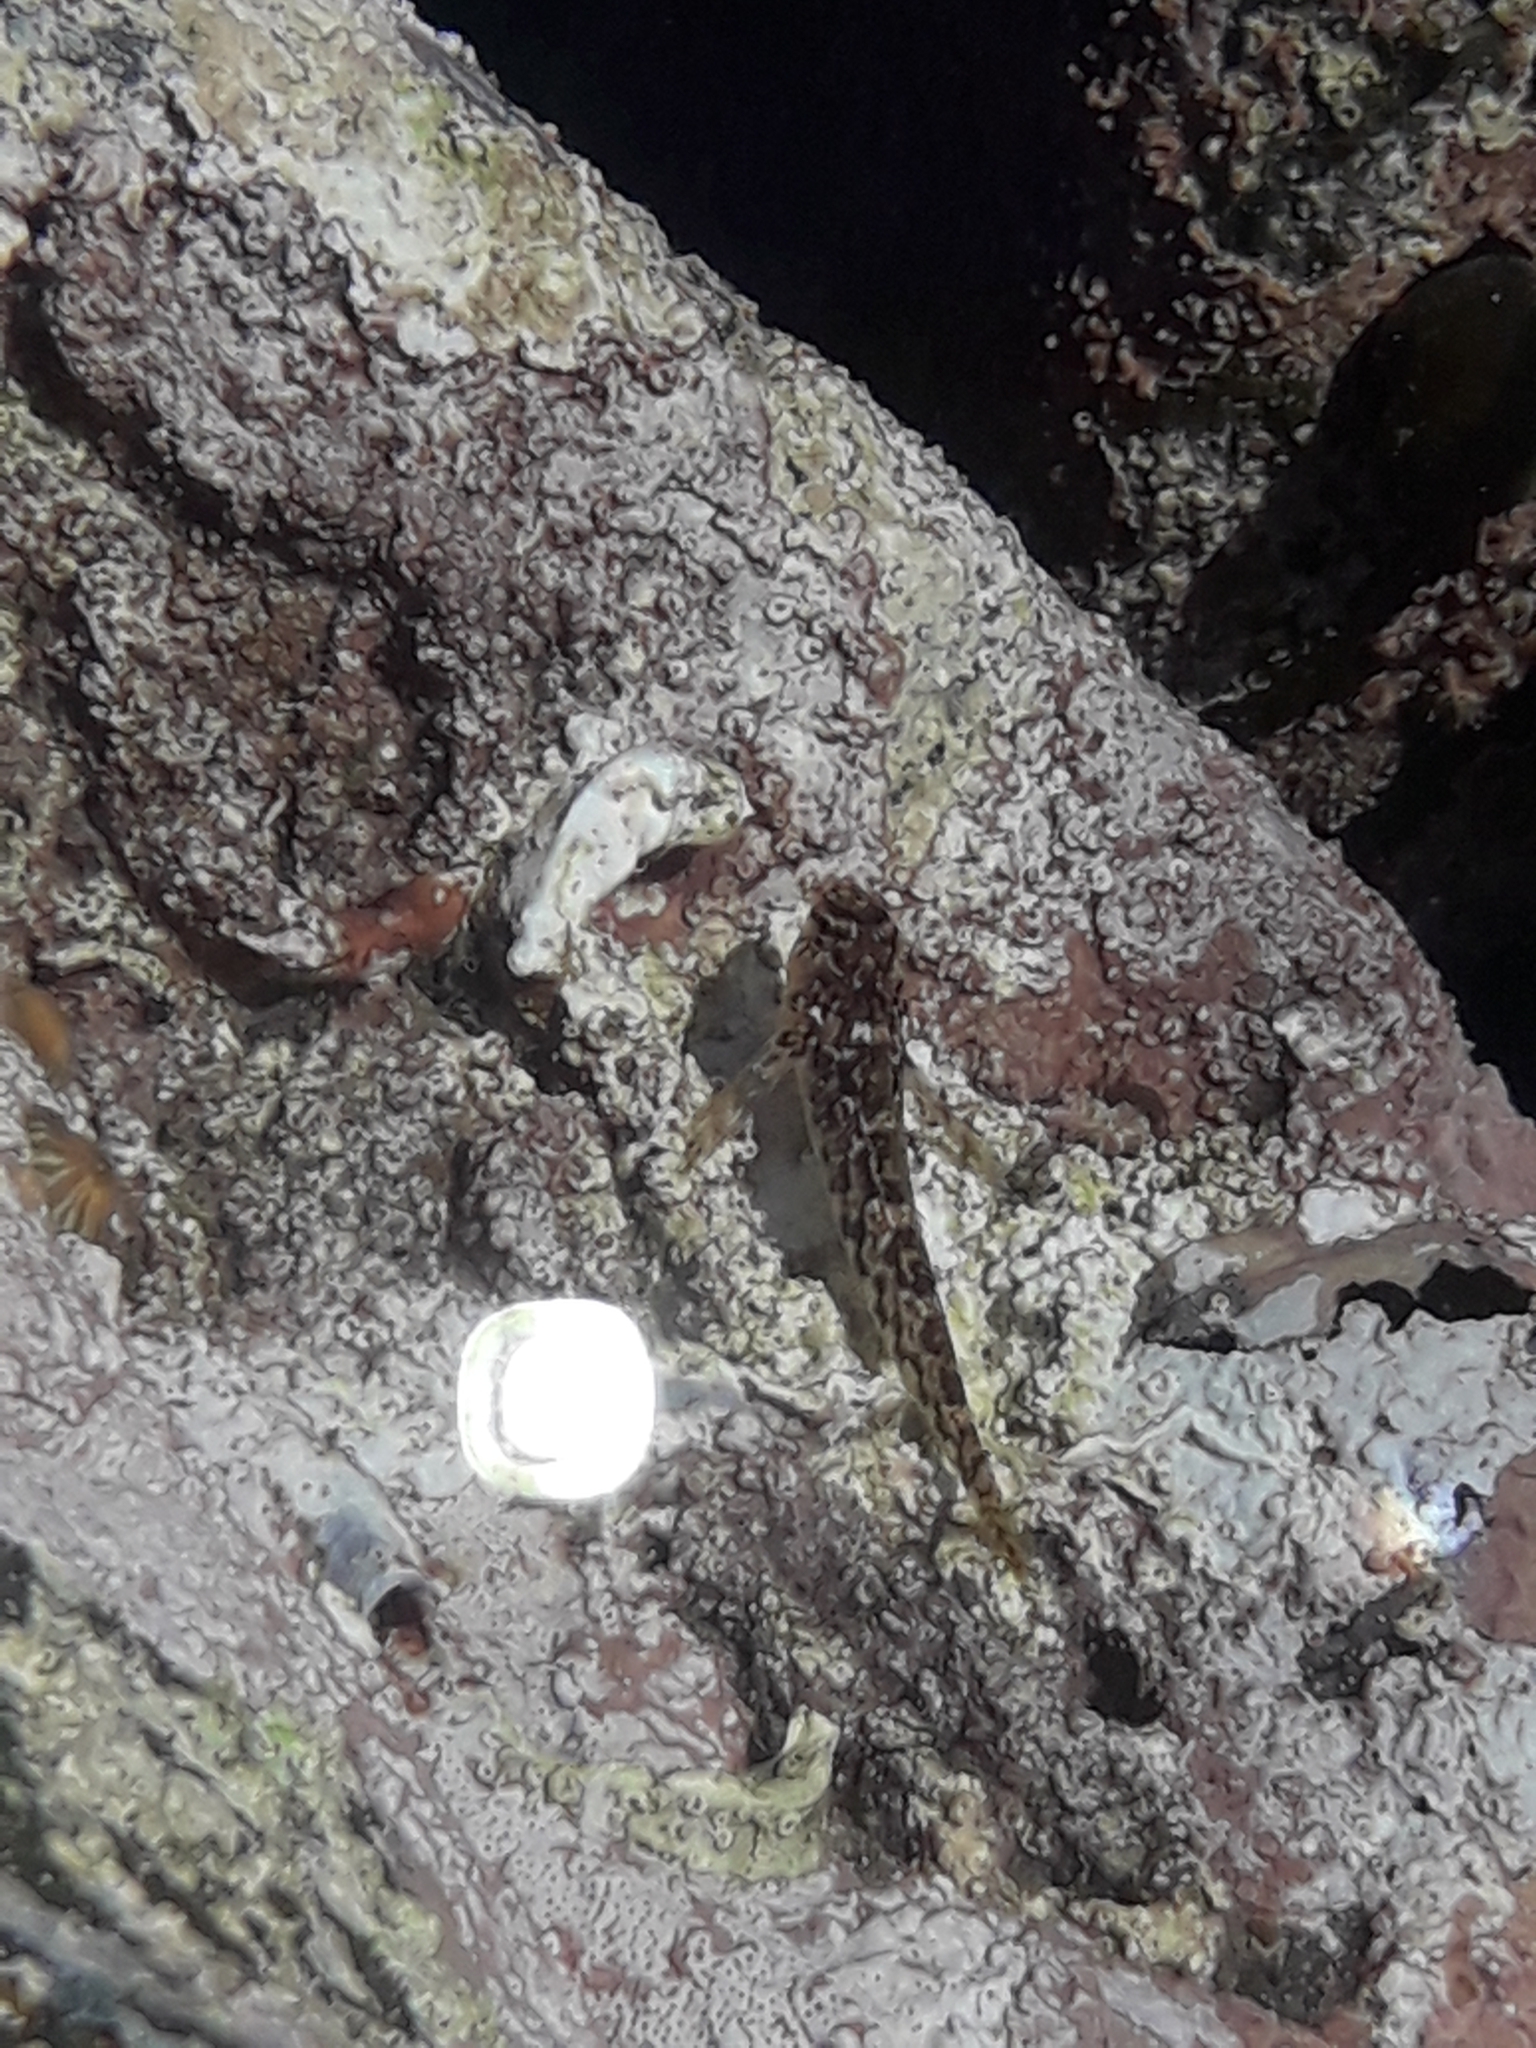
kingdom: Animalia
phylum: Chordata
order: Perciformes
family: Tripterygiidae
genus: Bellapiscis
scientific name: Bellapiscis medius
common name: Twister
